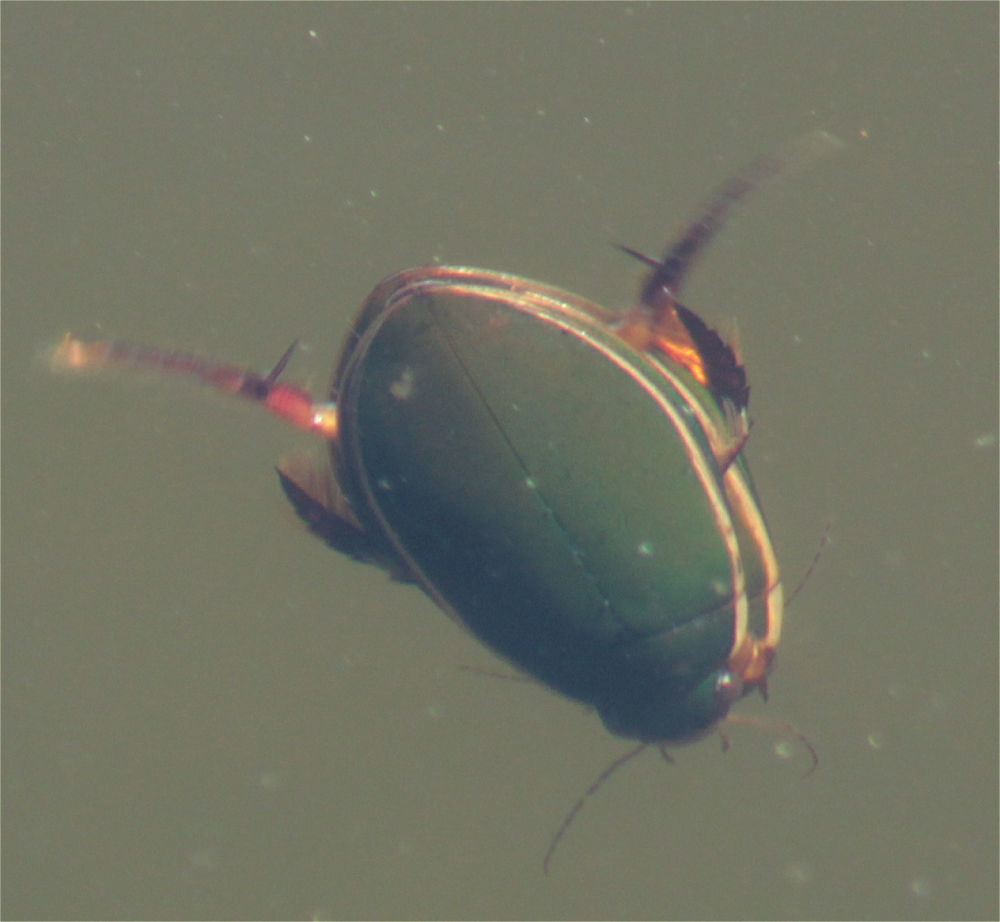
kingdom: Animalia
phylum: Arthropoda
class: Insecta
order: Coleoptera
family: Dytiscidae
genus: Cybister
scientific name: Cybister lateralimarginalis
